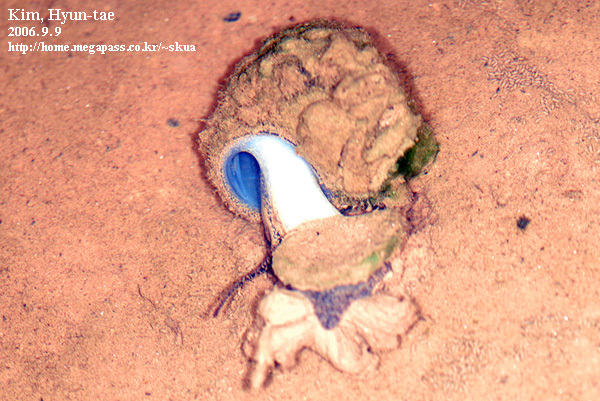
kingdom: Animalia
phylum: Mollusca
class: Gastropoda
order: Architaenioglossa
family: Viviparidae
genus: Cipangopaludina
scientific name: Cipangopaludina chinensis
